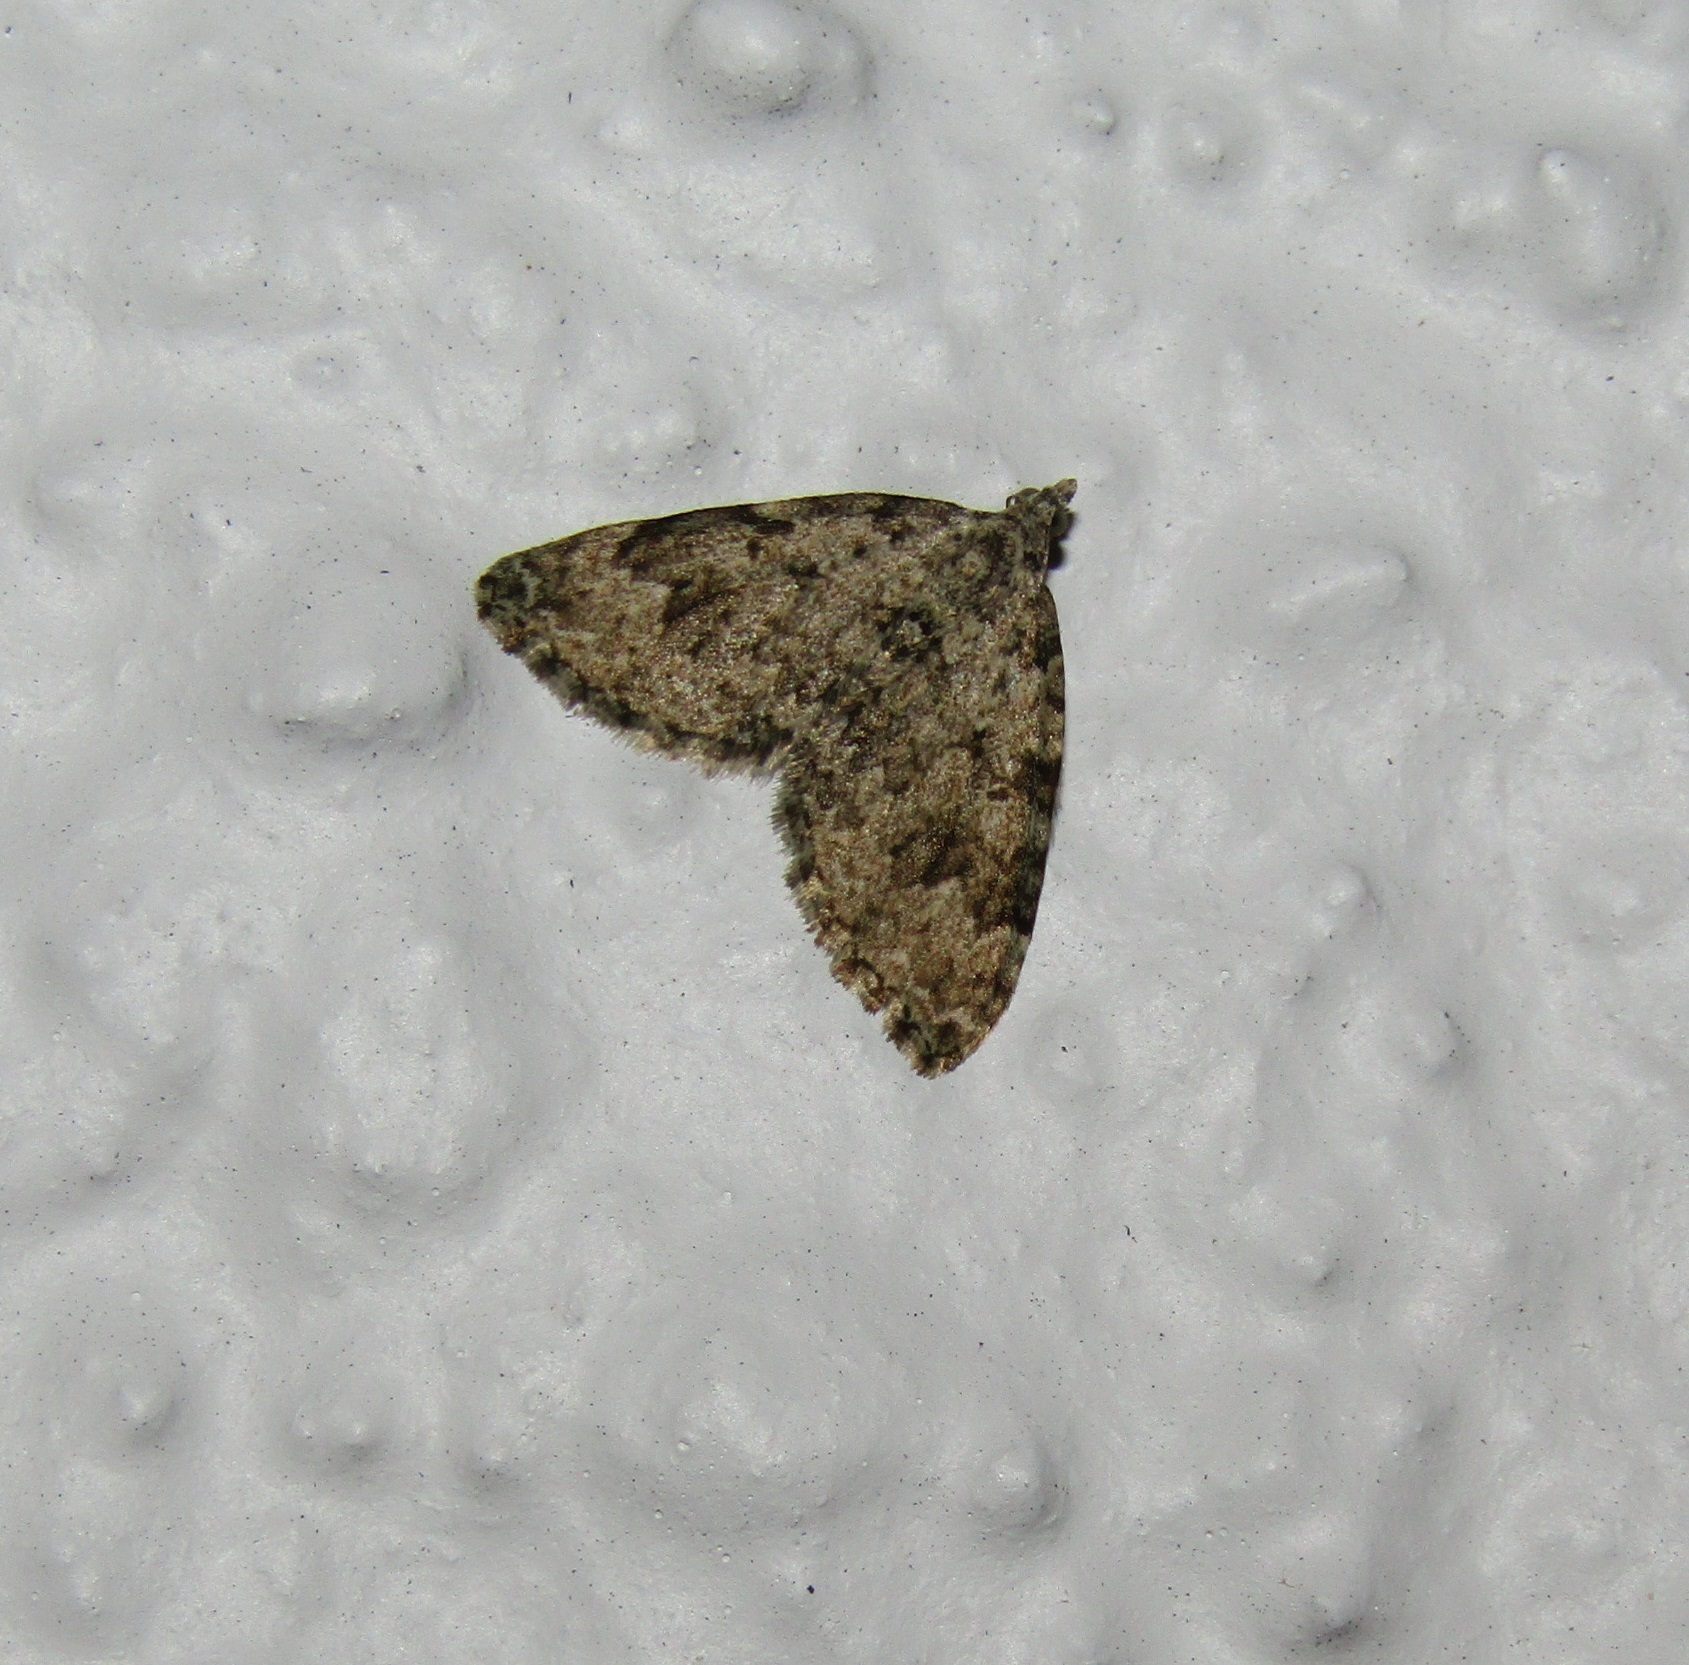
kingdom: Animalia
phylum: Arthropoda
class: Insecta
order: Lepidoptera
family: Geometridae
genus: Helastia
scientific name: Helastia cinerearia
